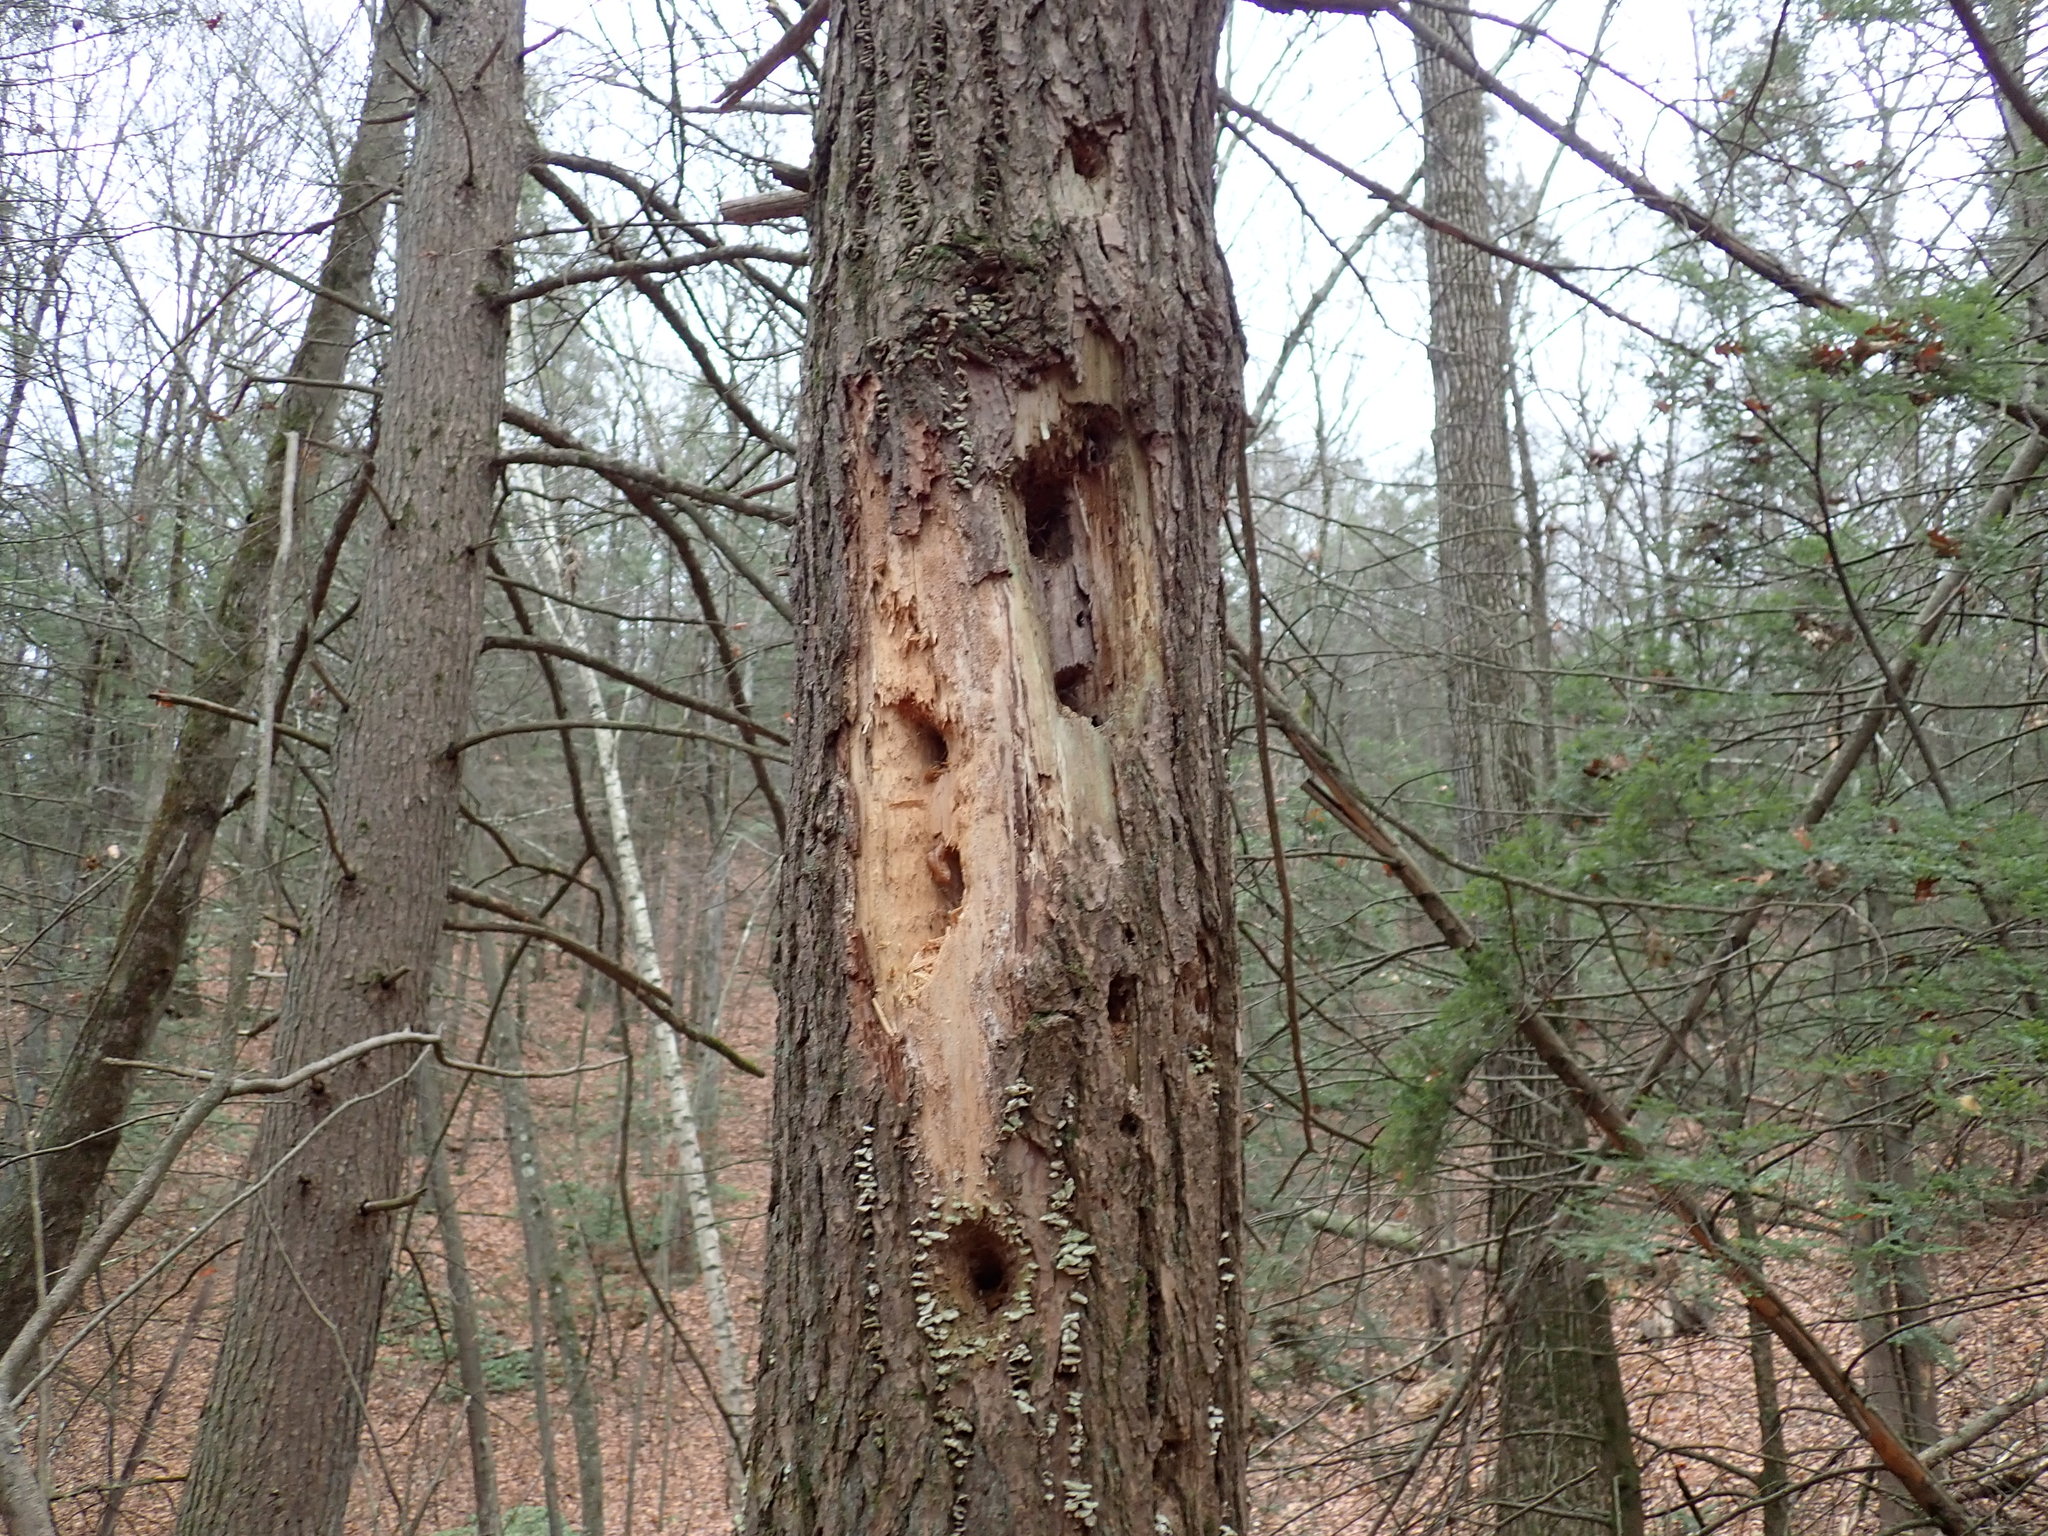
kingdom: Animalia
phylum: Chordata
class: Aves
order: Piciformes
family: Picidae
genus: Dryocopus
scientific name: Dryocopus pileatus
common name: Pileated woodpecker
